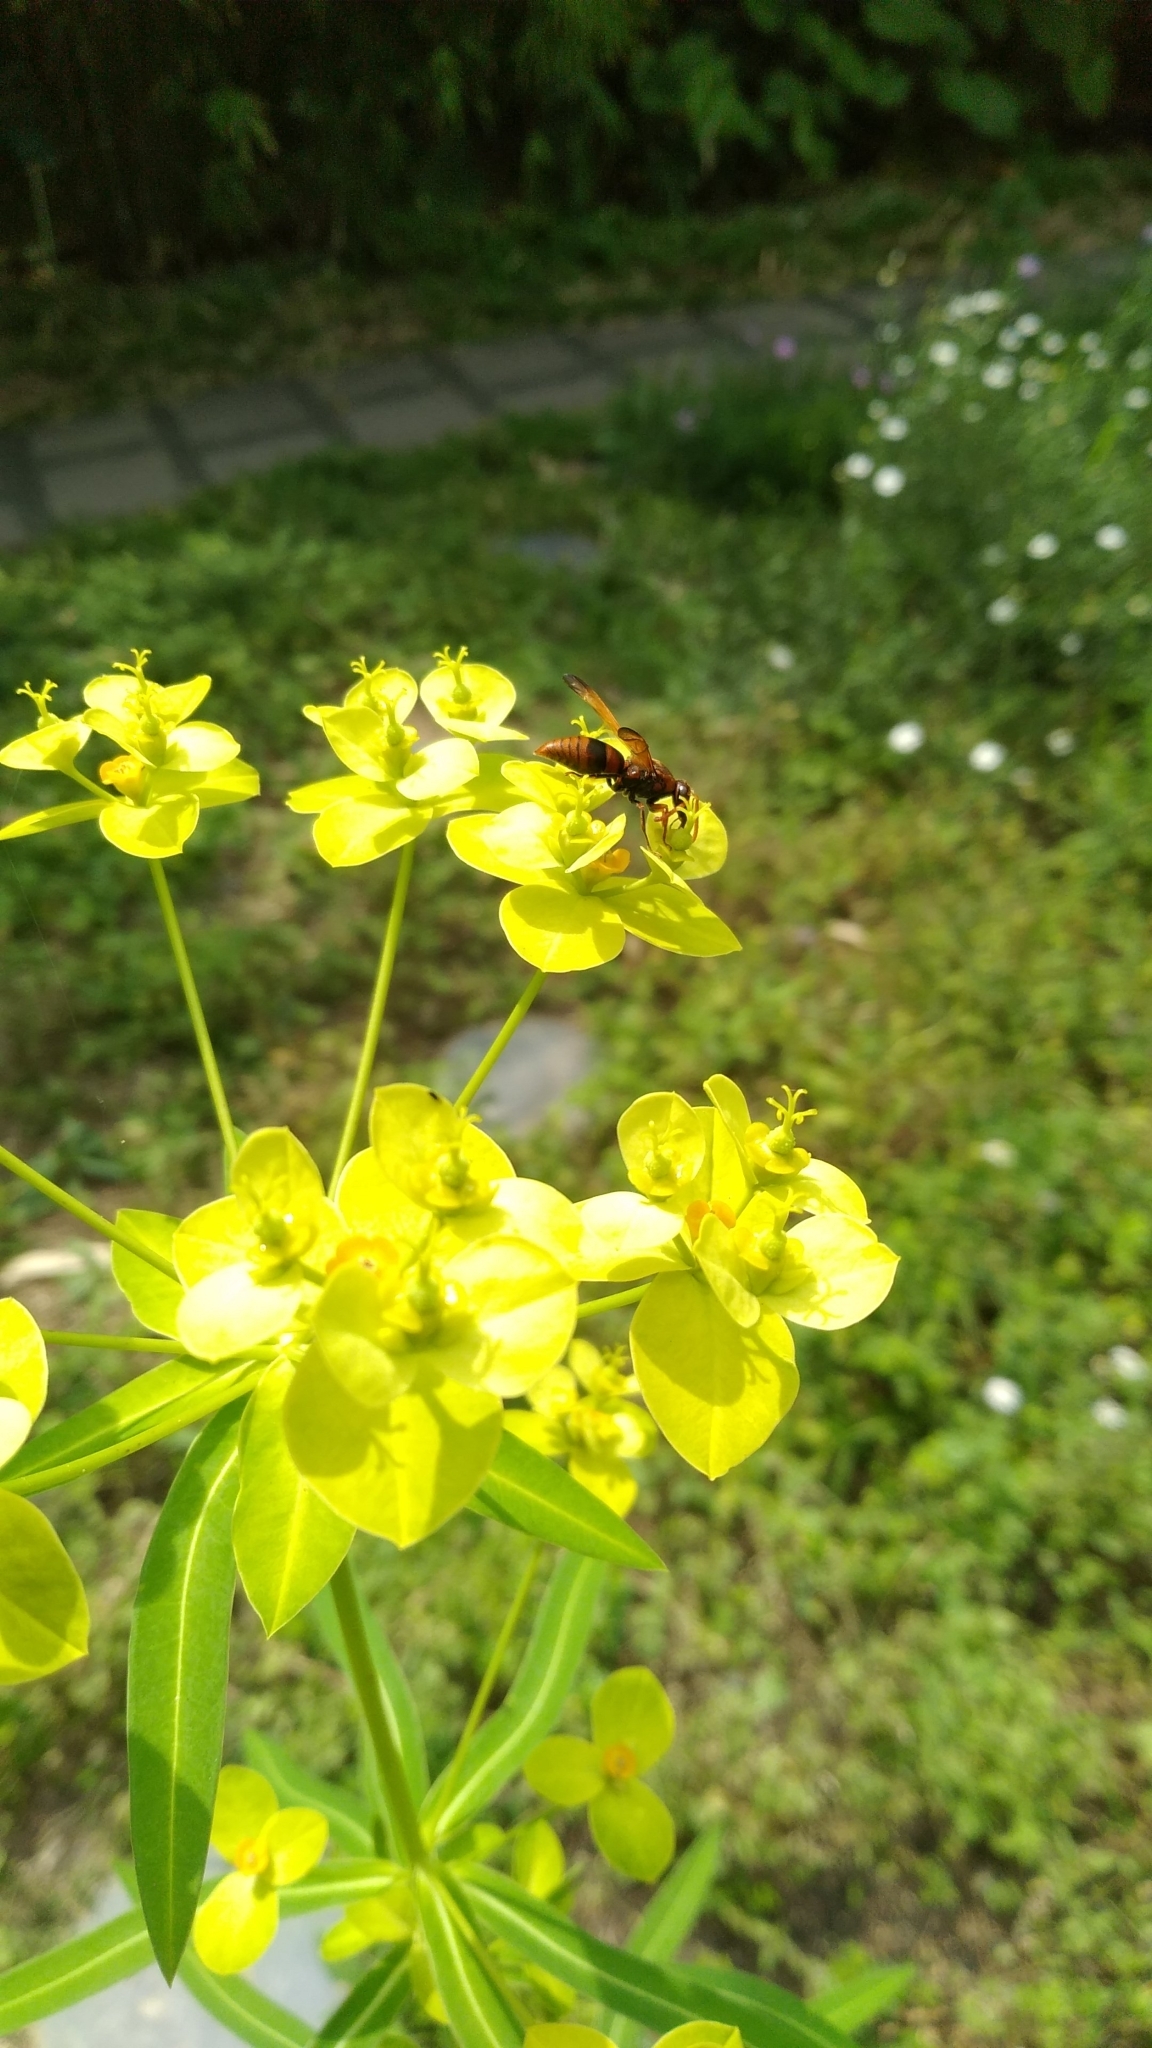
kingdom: Animalia
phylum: Arthropoda
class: Insecta
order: Hymenoptera
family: Eumenidae
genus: Rhynchium
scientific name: Rhynchium brunneum
